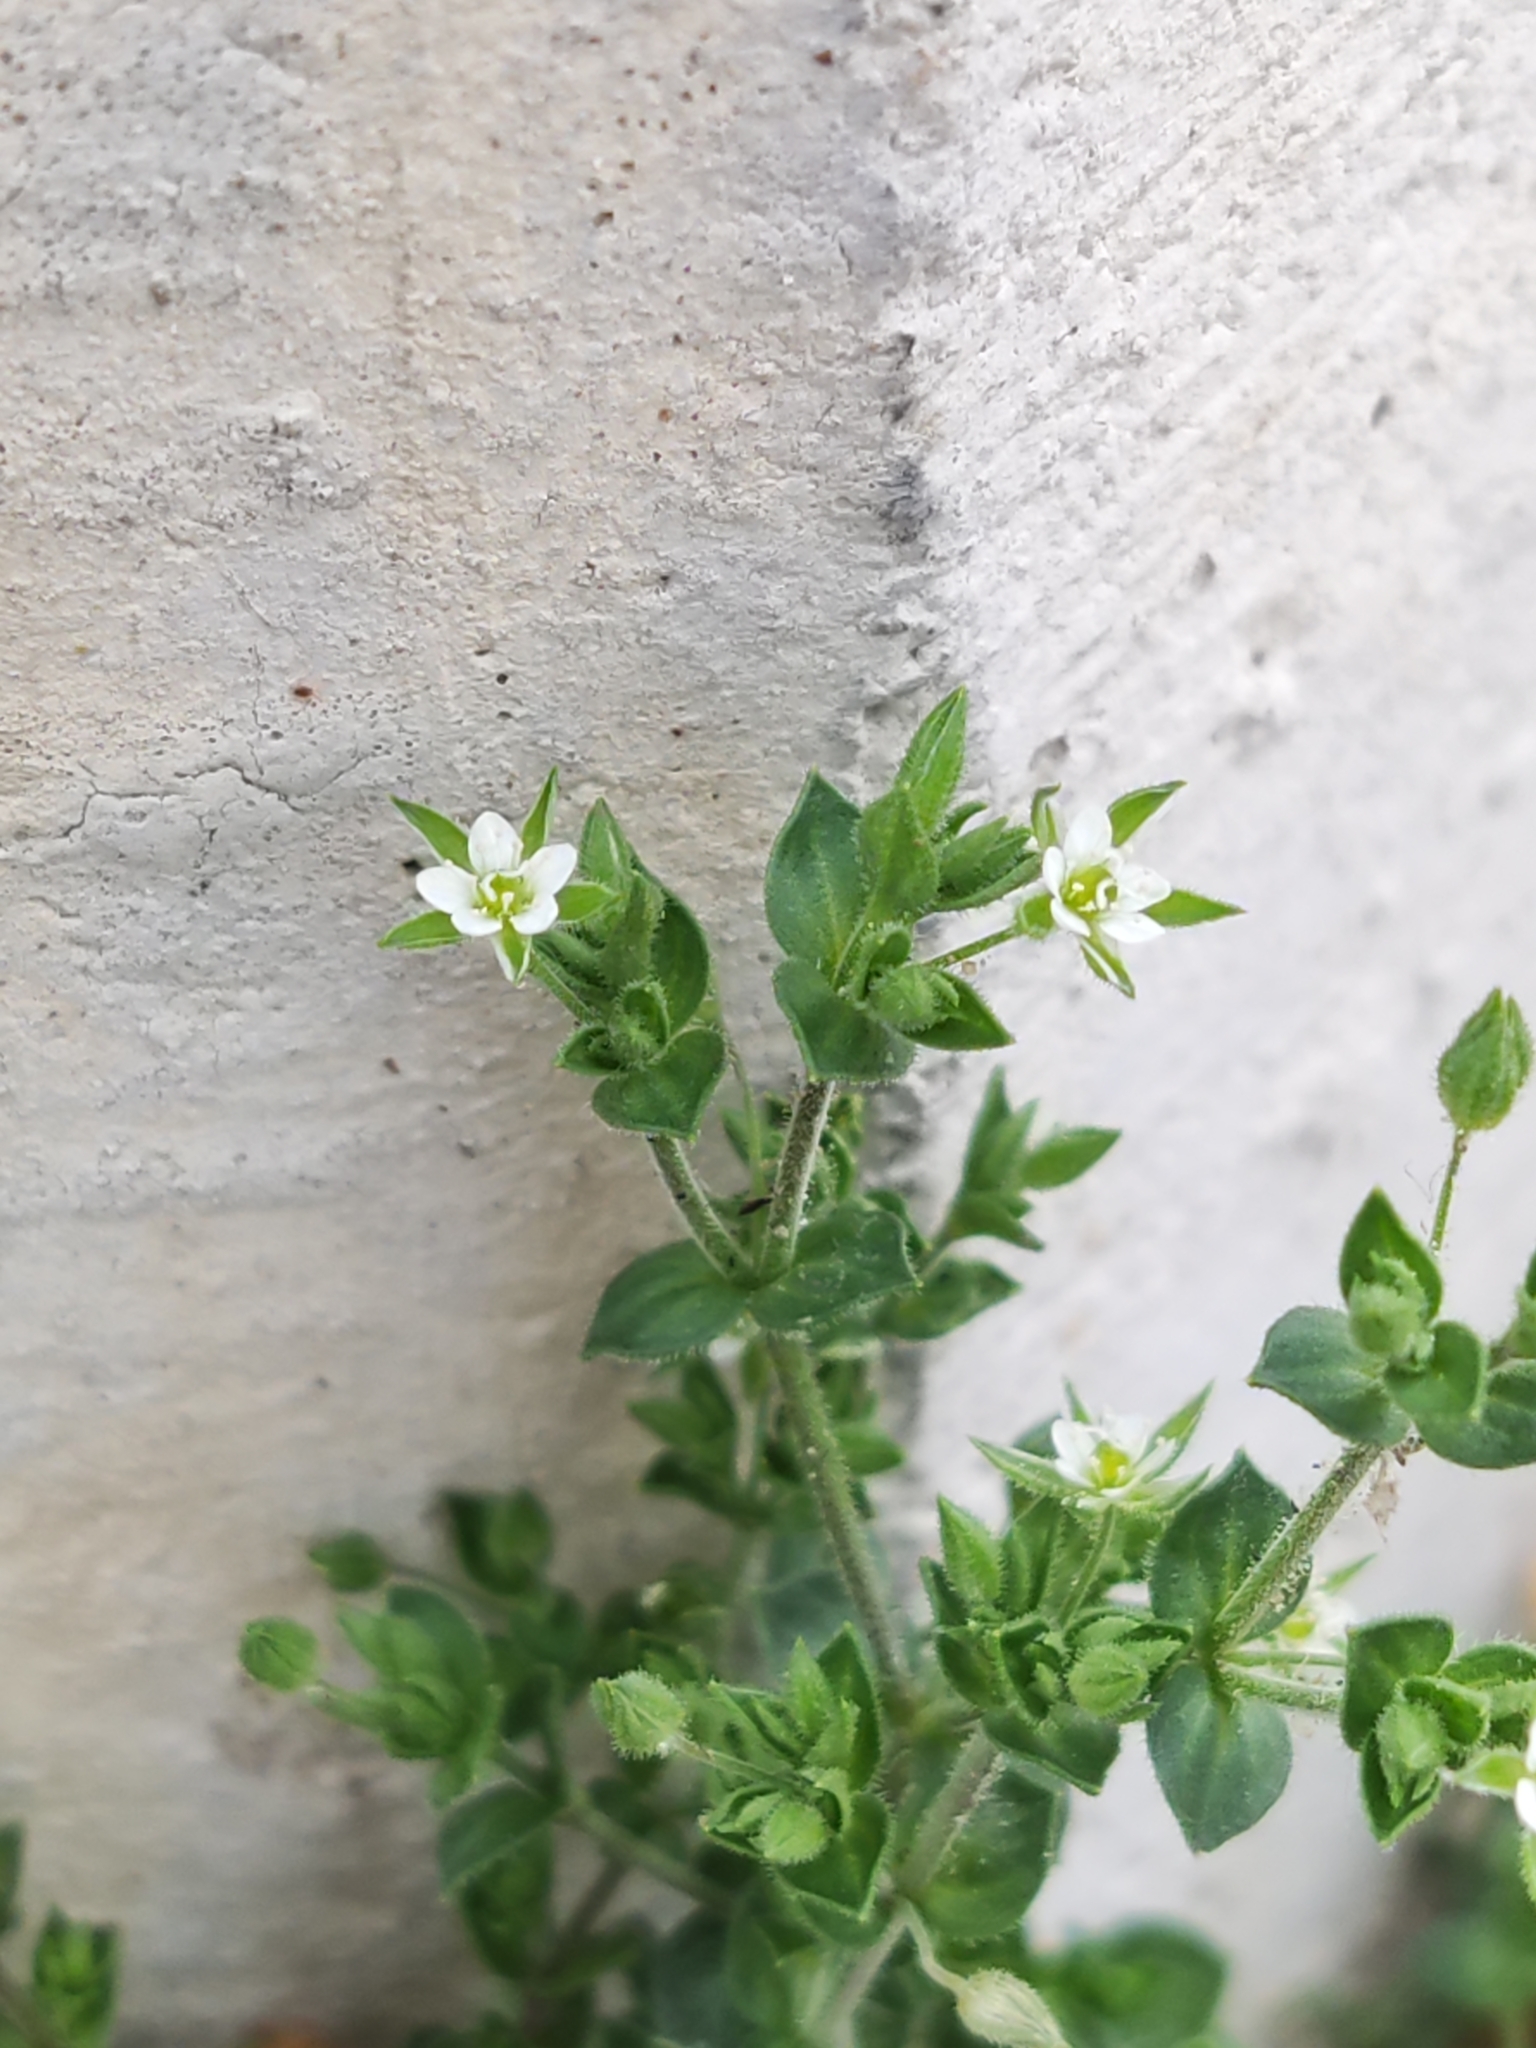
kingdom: Plantae
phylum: Tracheophyta
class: Magnoliopsida
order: Caryophyllales
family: Caryophyllaceae
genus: Arenaria
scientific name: Arenaria serpyllifolia
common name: Thyme-leaved sandwort
